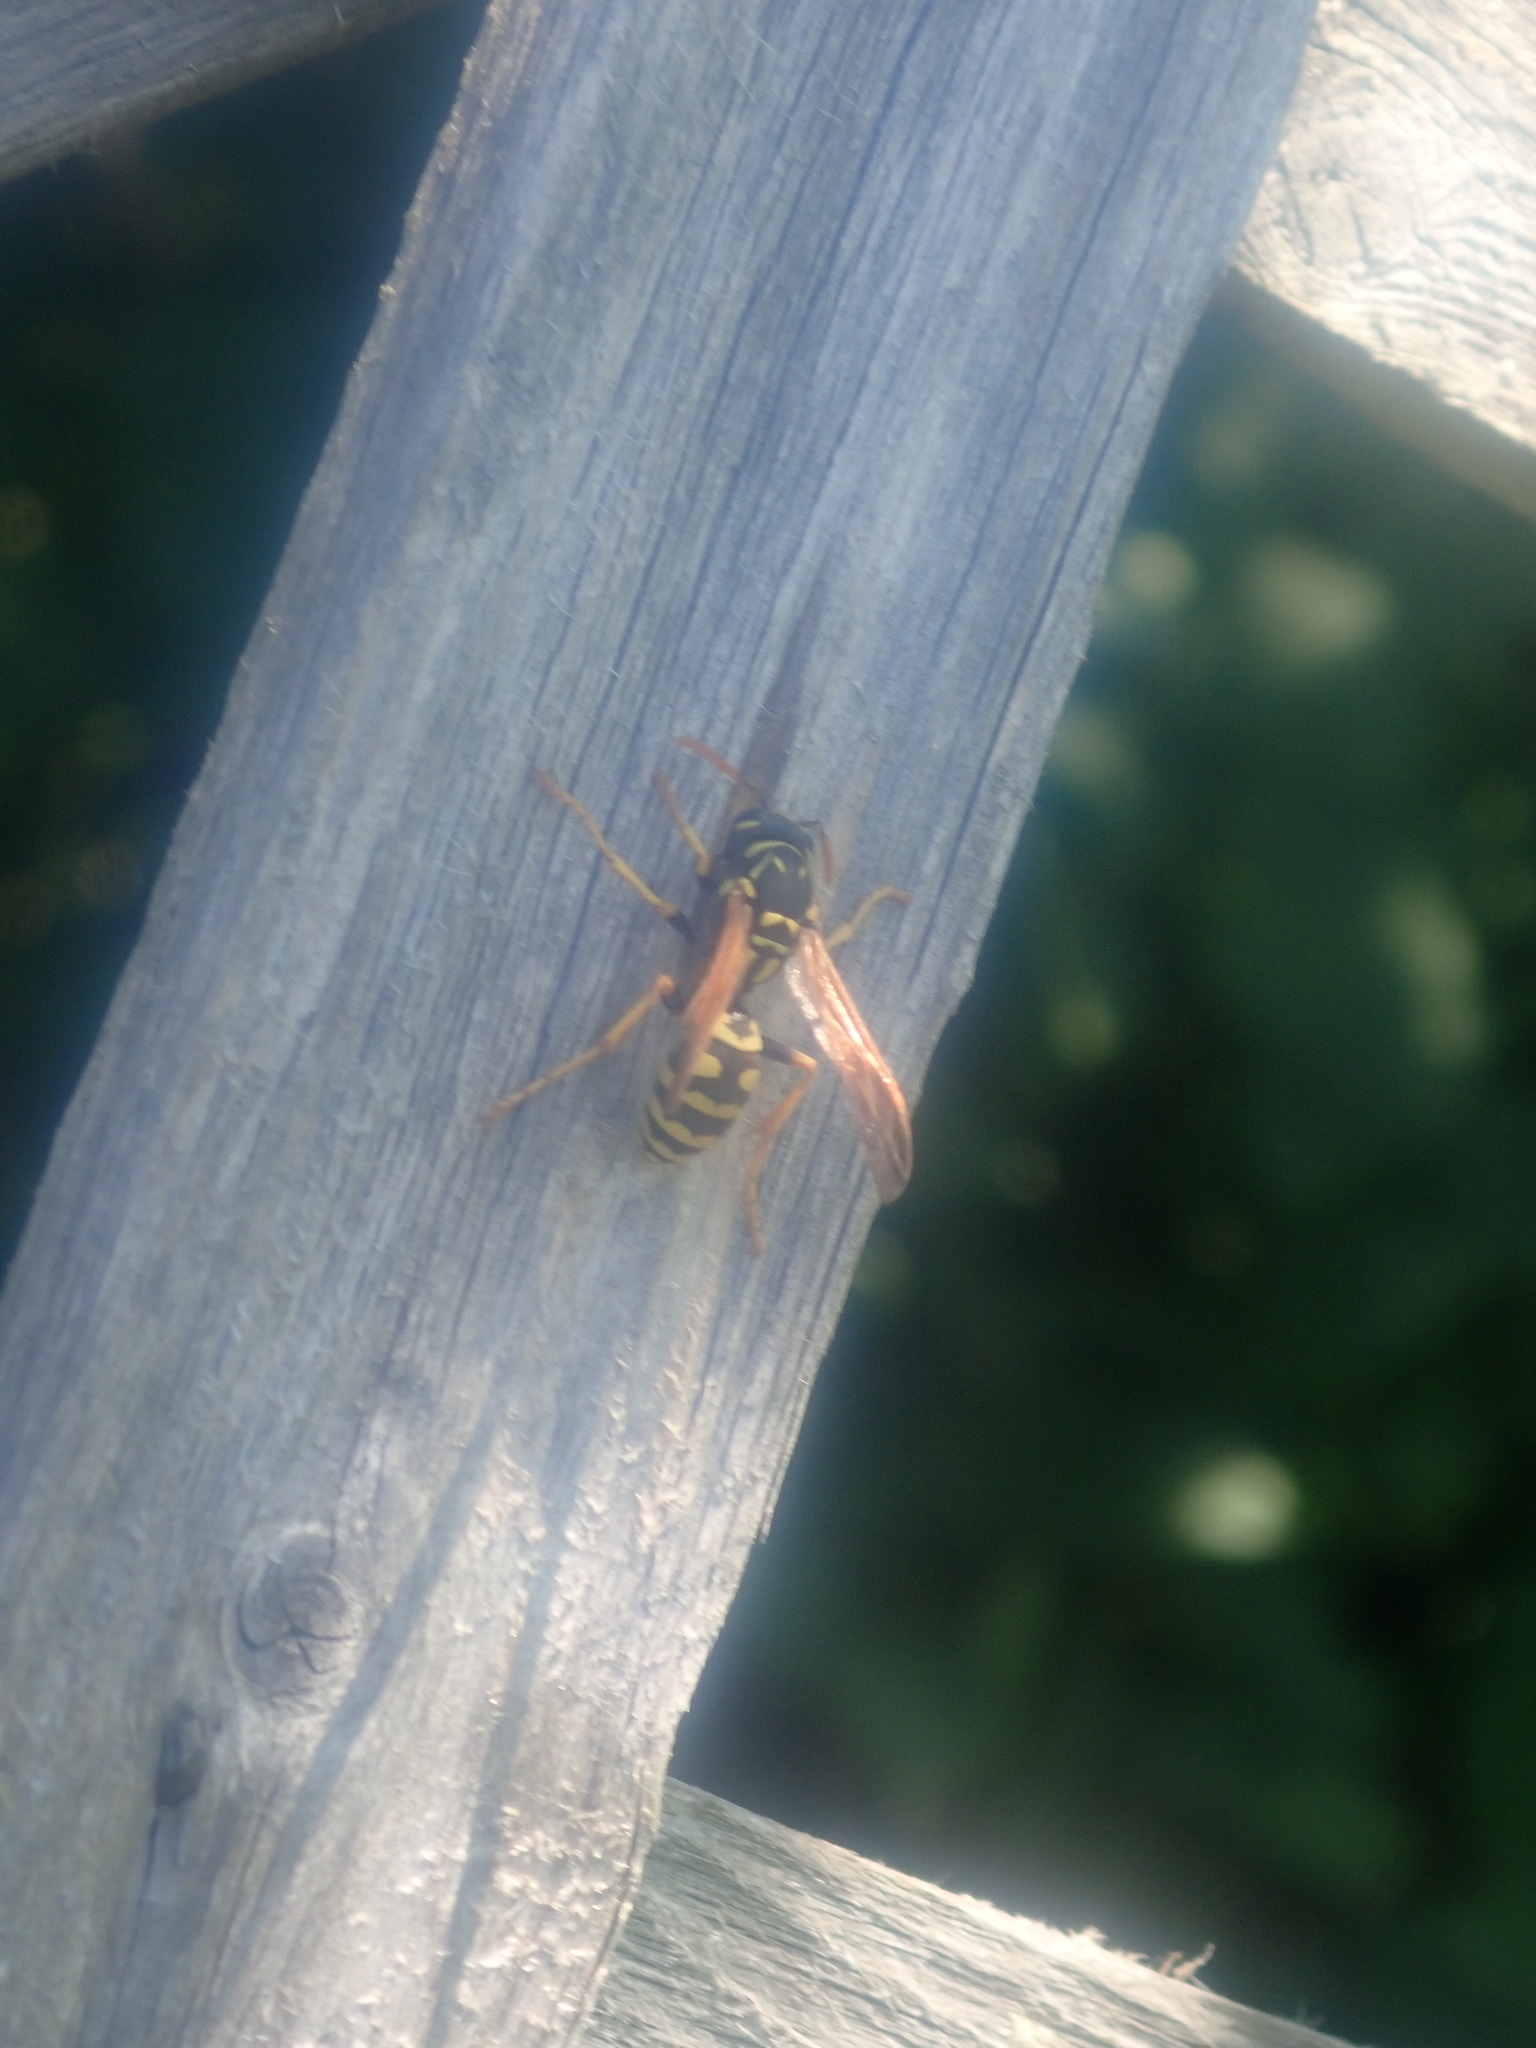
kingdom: Animalia
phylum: Arthropoda
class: Insecta
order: Hymenoptera
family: Eumenidae
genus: Polistes
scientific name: Polistes dominula
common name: Paper wasp
